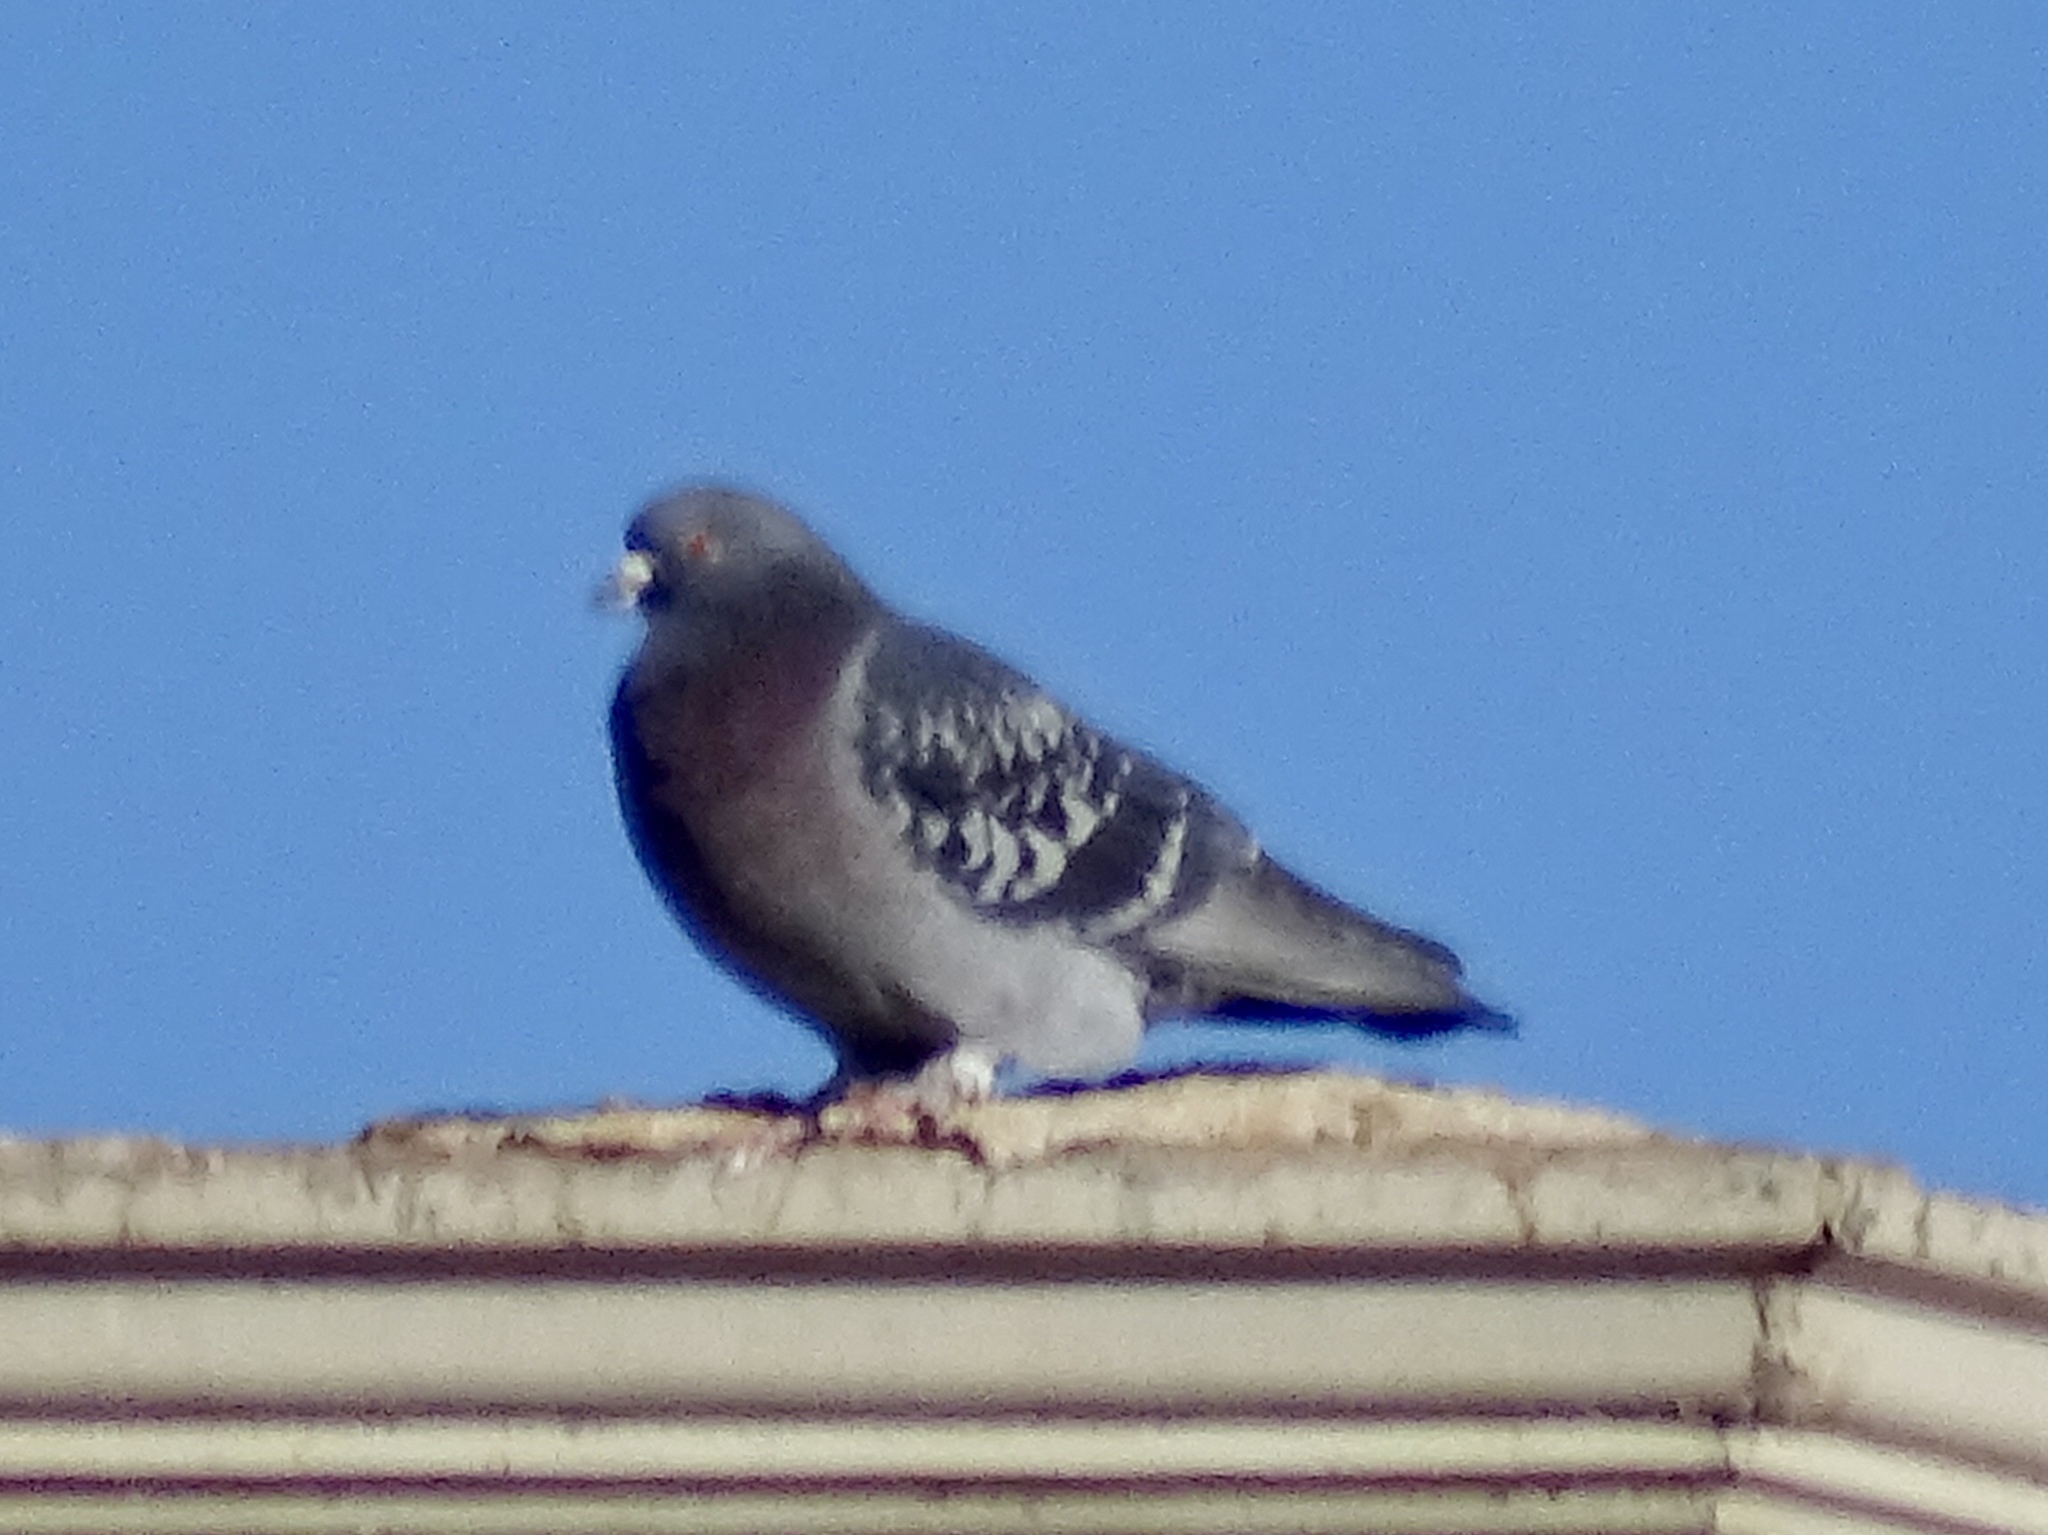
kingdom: Animalia
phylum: Chordata
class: Aves
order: Columbiformes
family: Columbidae
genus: Columba
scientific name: Columba livia
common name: Rock pigeon
